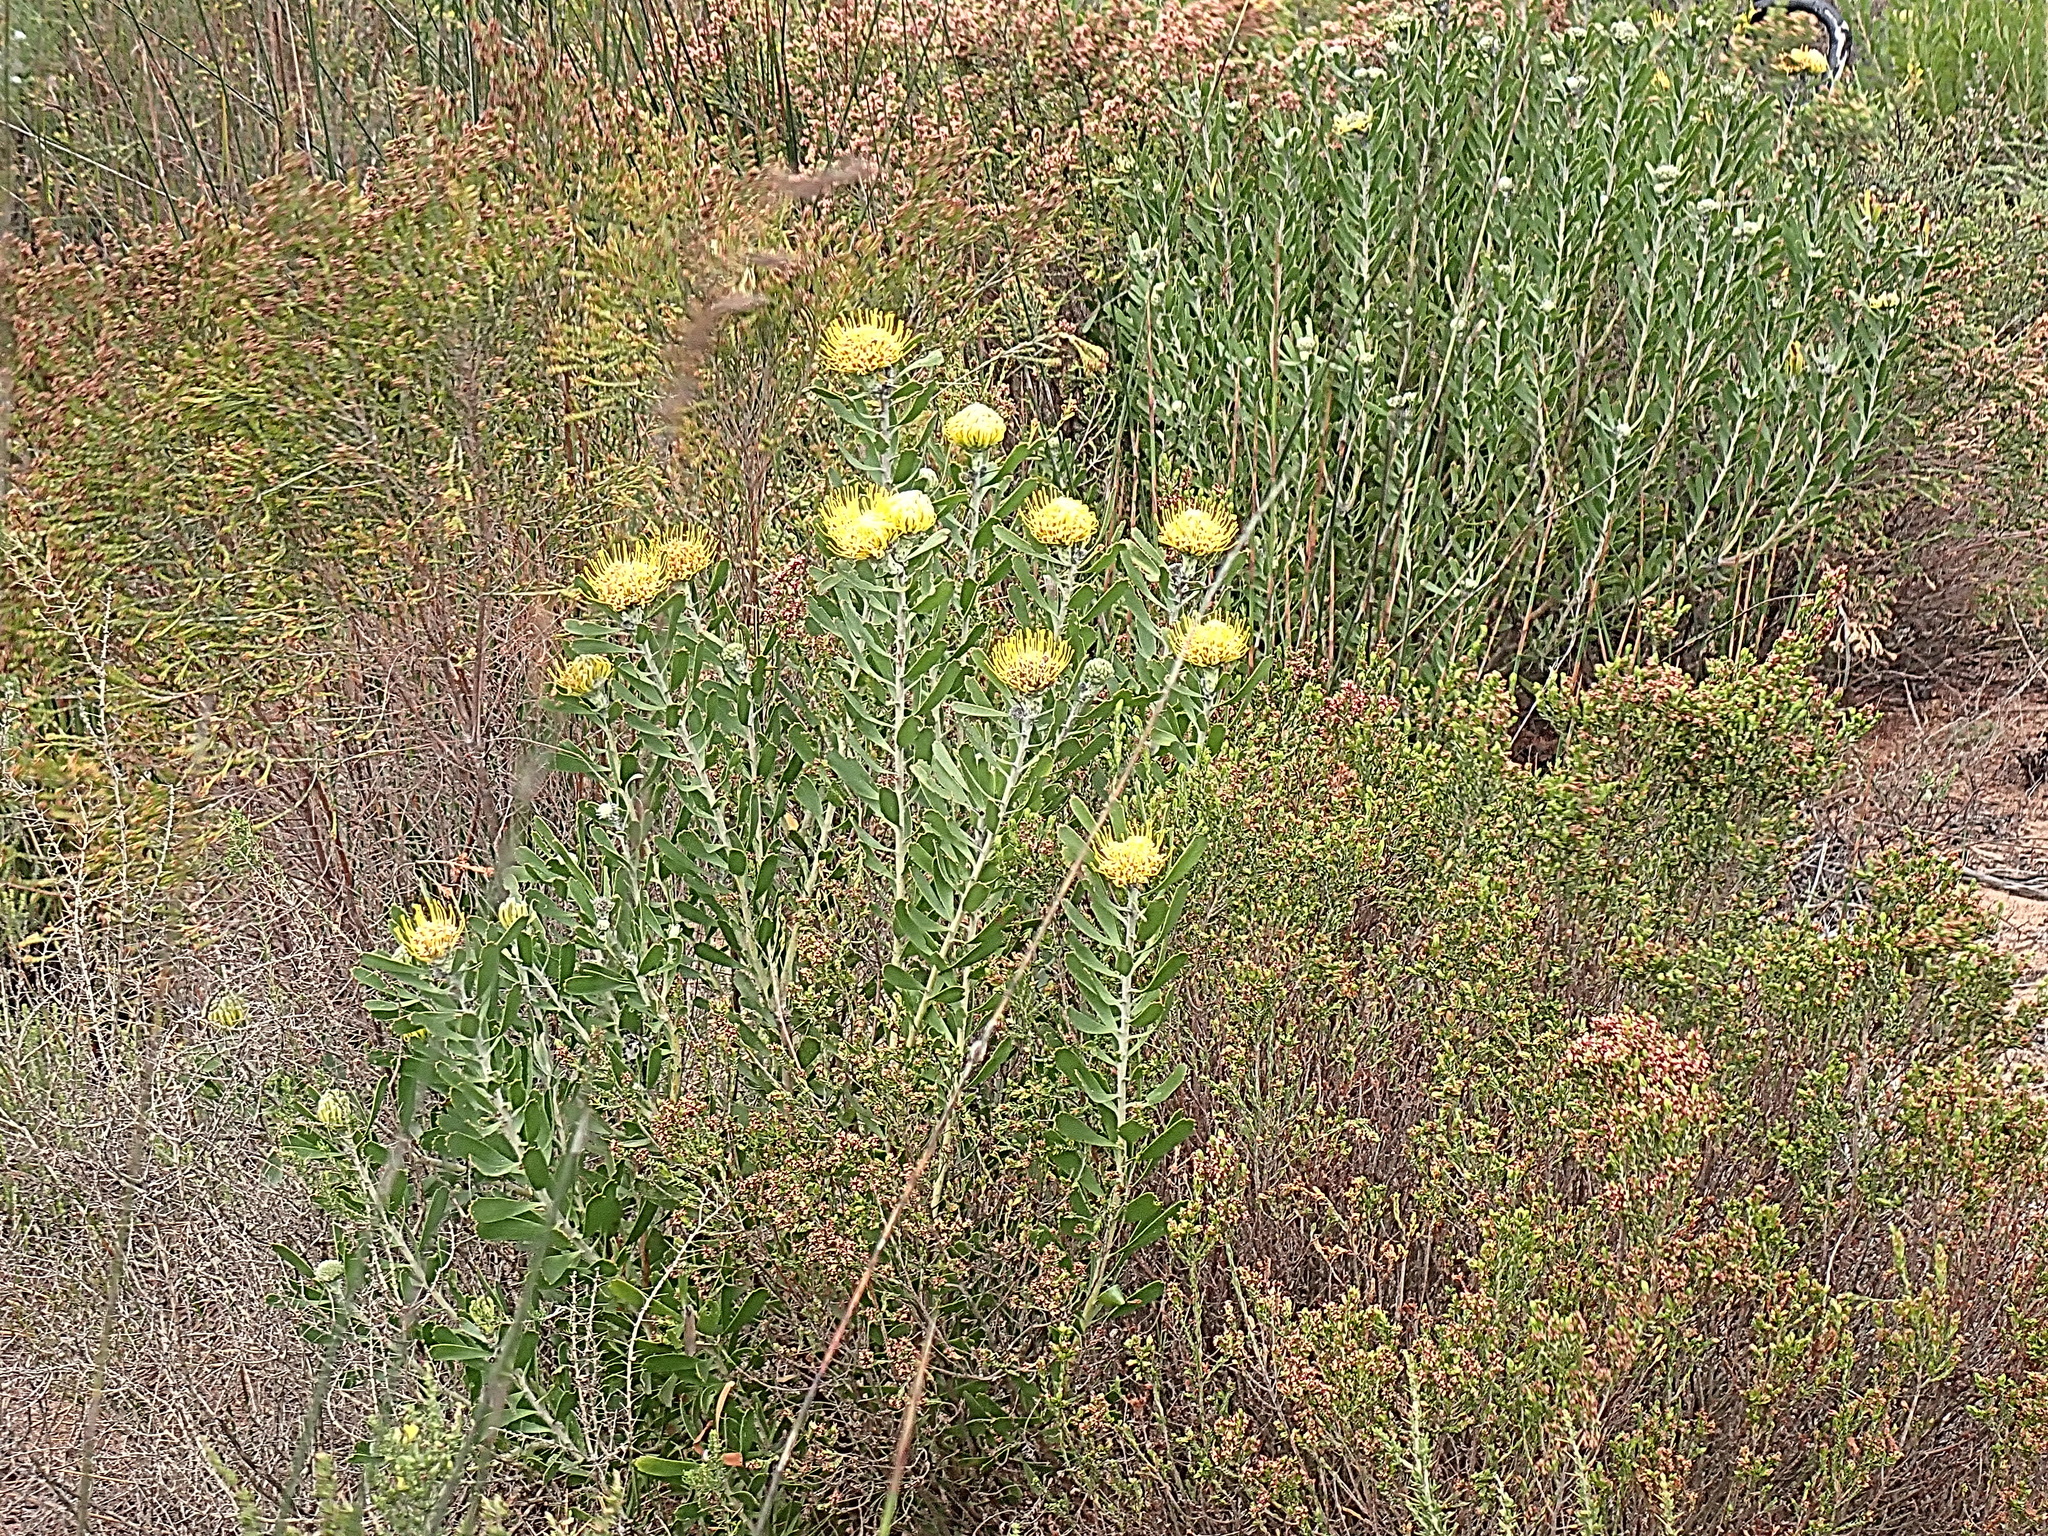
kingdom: Plantae
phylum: Tracheophyta
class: Magnoliopsida
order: Proteales
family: Proteaceae
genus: Leucospermum
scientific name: Leucospermum muirii
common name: Albertinia pincushion
